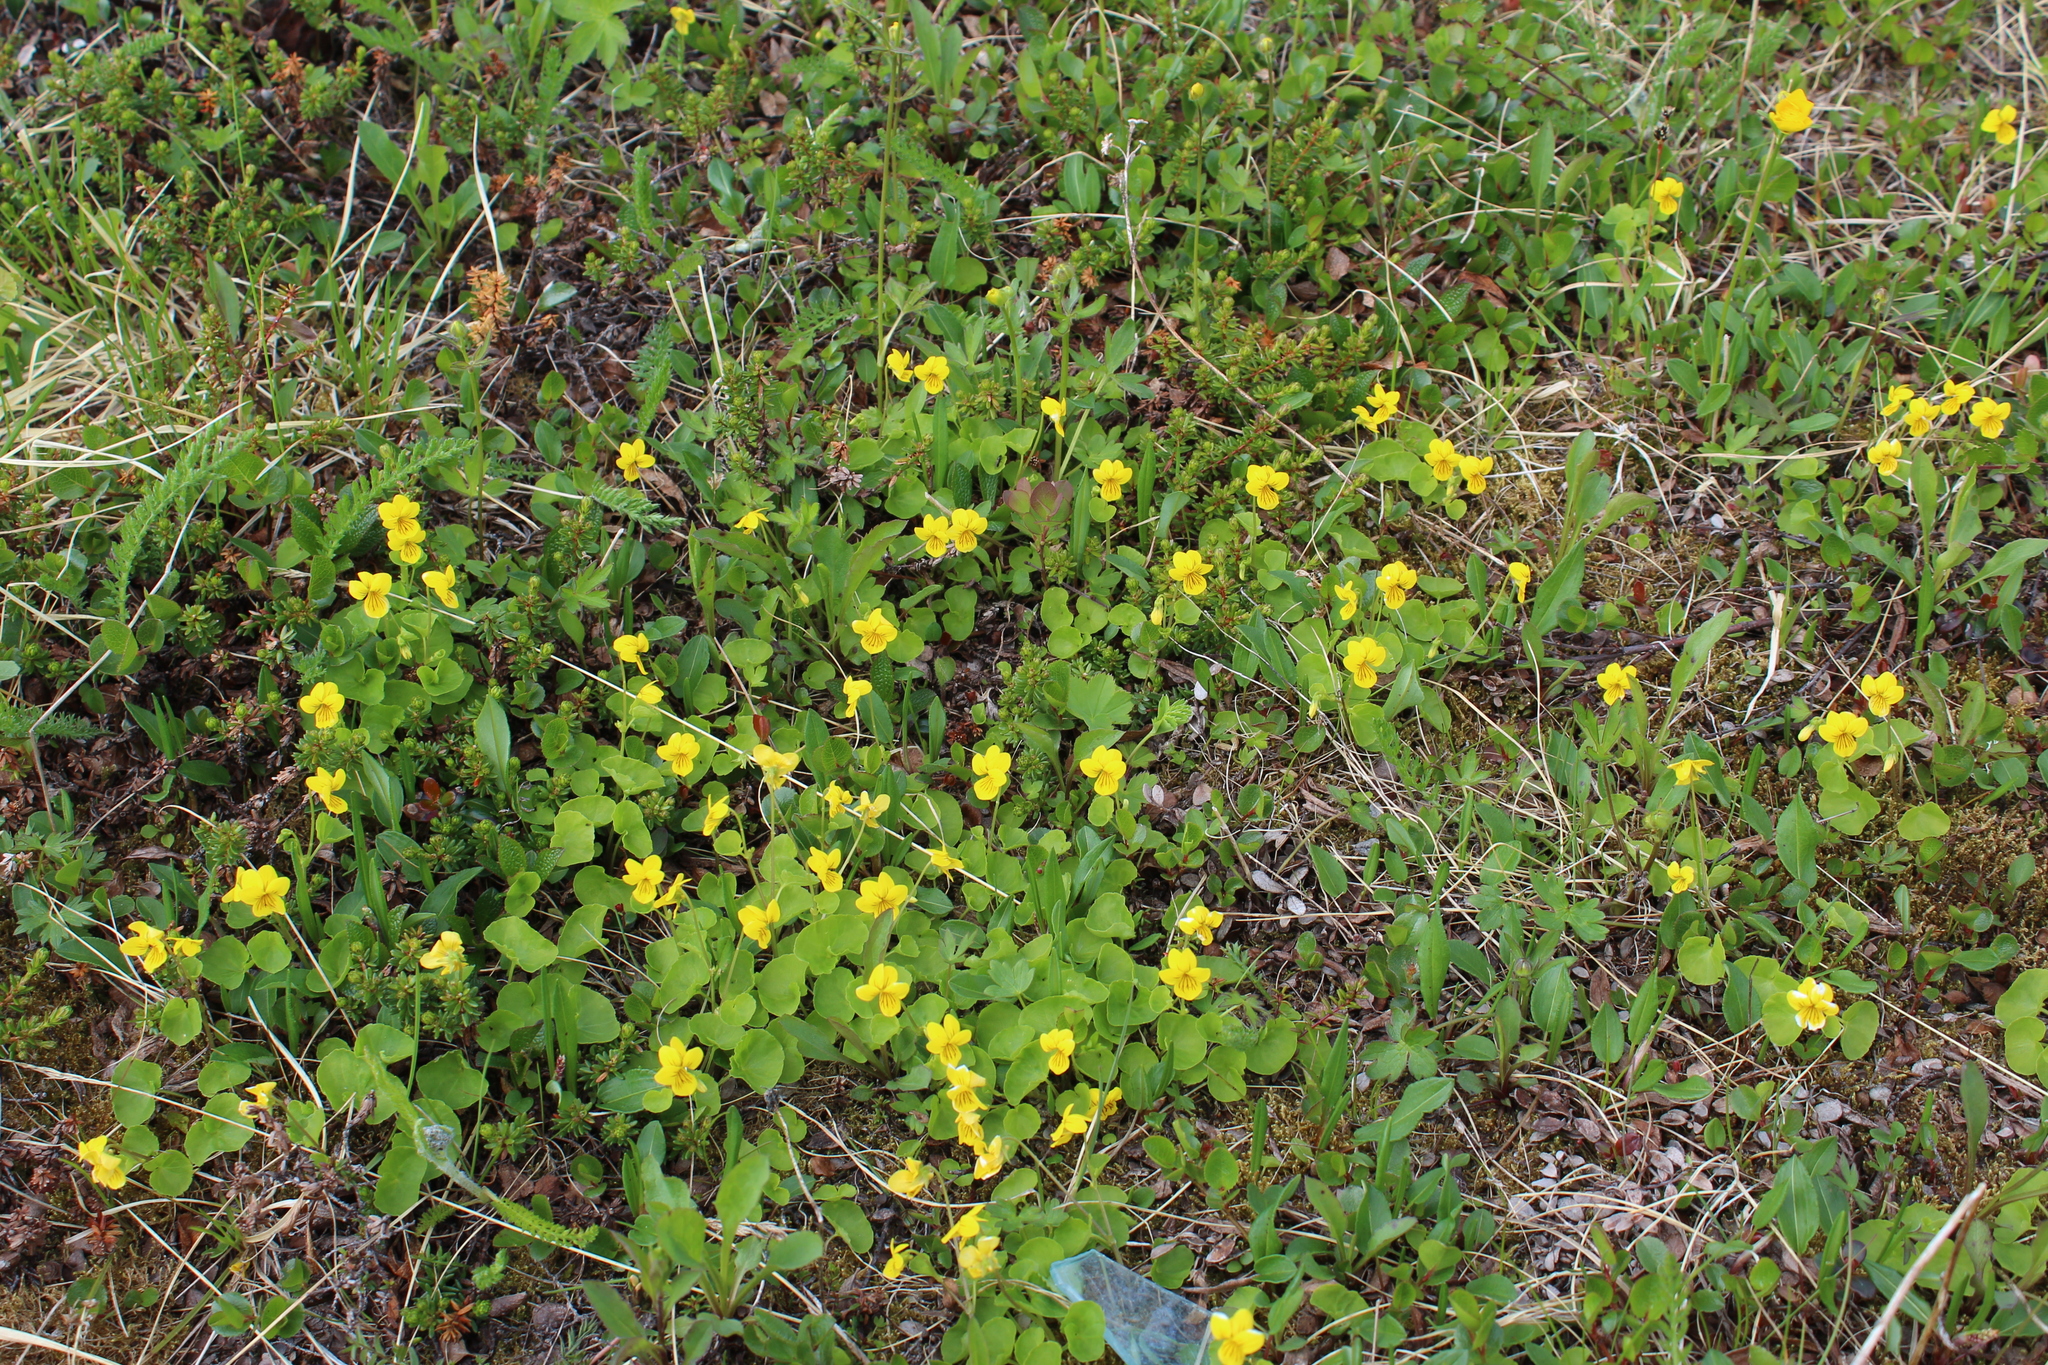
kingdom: Plantae
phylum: Tracheophyta
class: Magnoliopsida
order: Malpighiales
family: Violaceae
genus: Viola
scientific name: Viola biflora
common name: Alpine yellow violet
